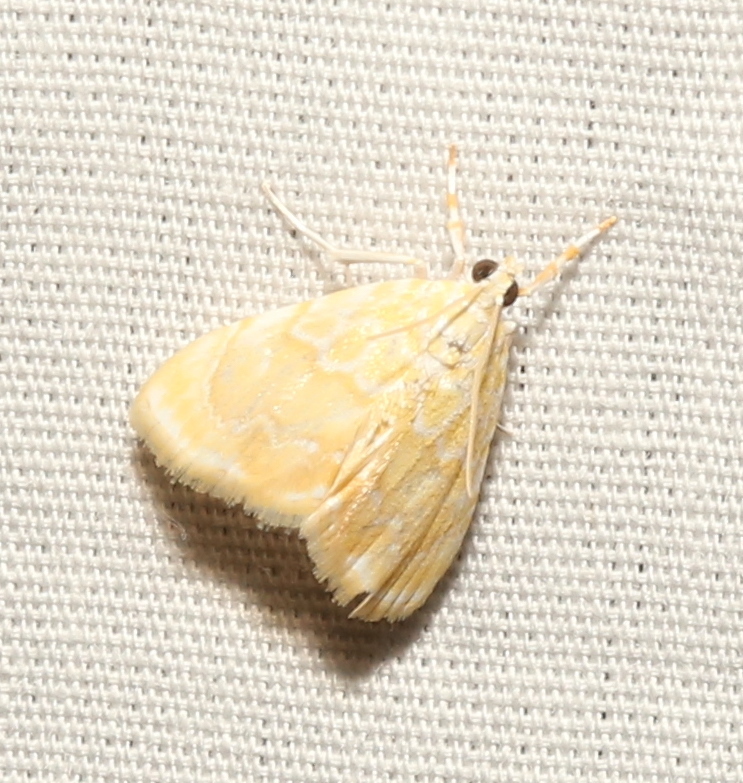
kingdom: Animalia
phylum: Arthropoda
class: Insecta
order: Lepidoptera
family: Crambidae
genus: Glaphyria
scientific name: Glaphyria glaphyralis
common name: Common glaphyria moth
